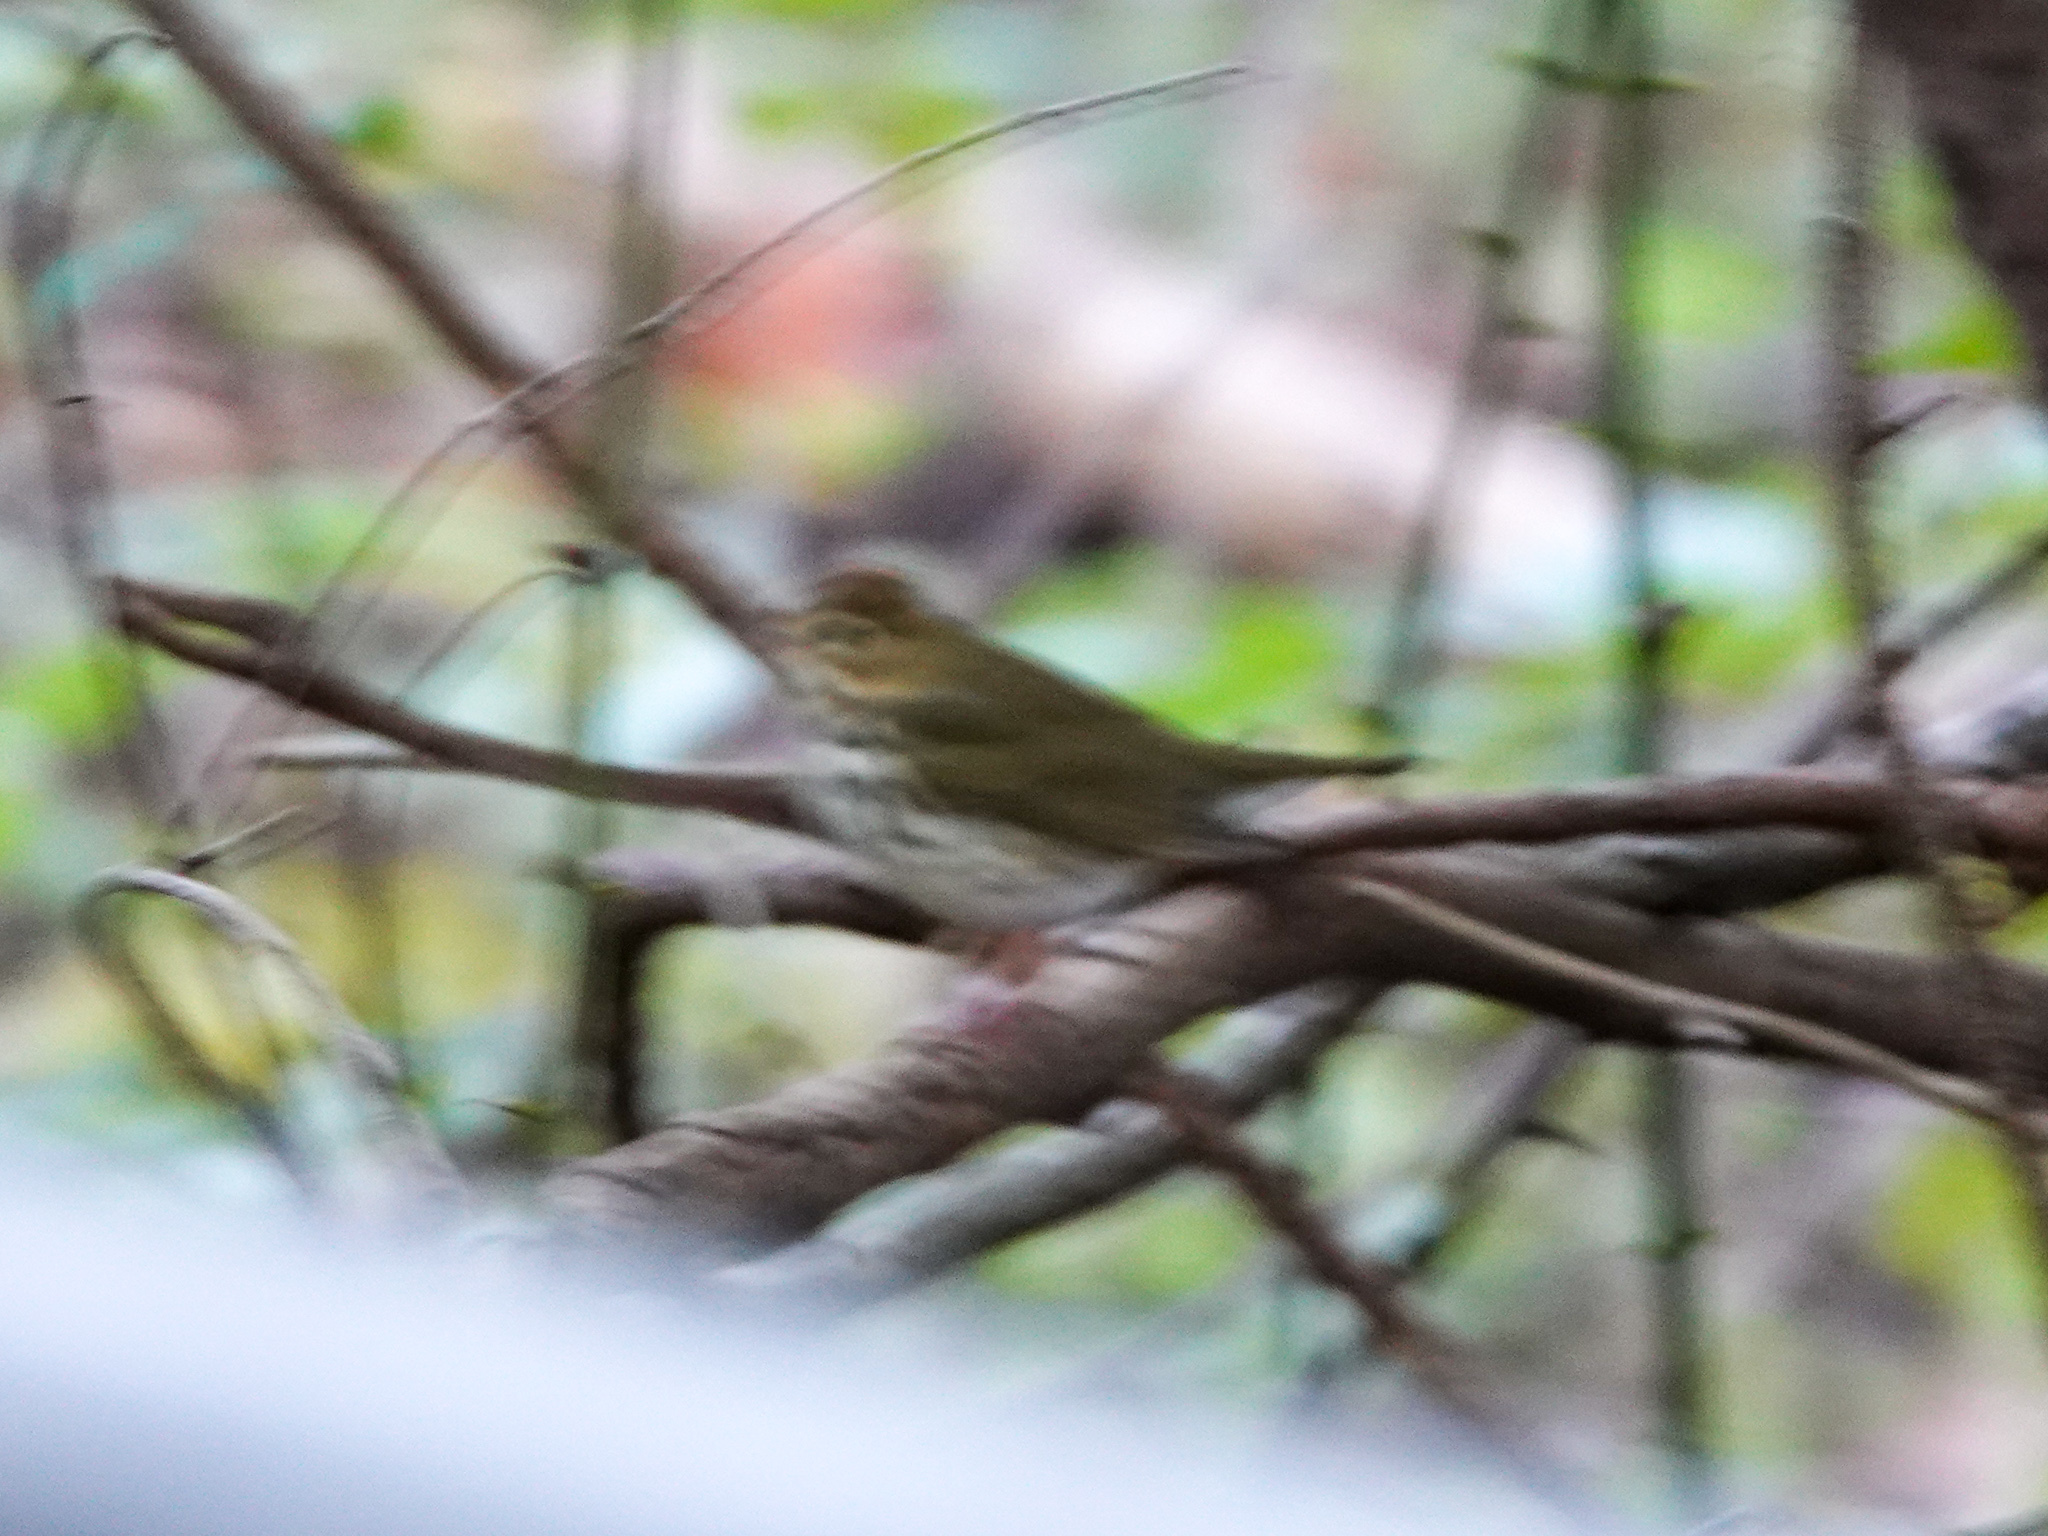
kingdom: Animalia
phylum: Chordata
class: Aves
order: Passeriformes
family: Parulidae
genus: Seiurus
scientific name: Seiurus aurocapilla
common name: Ovenbird
